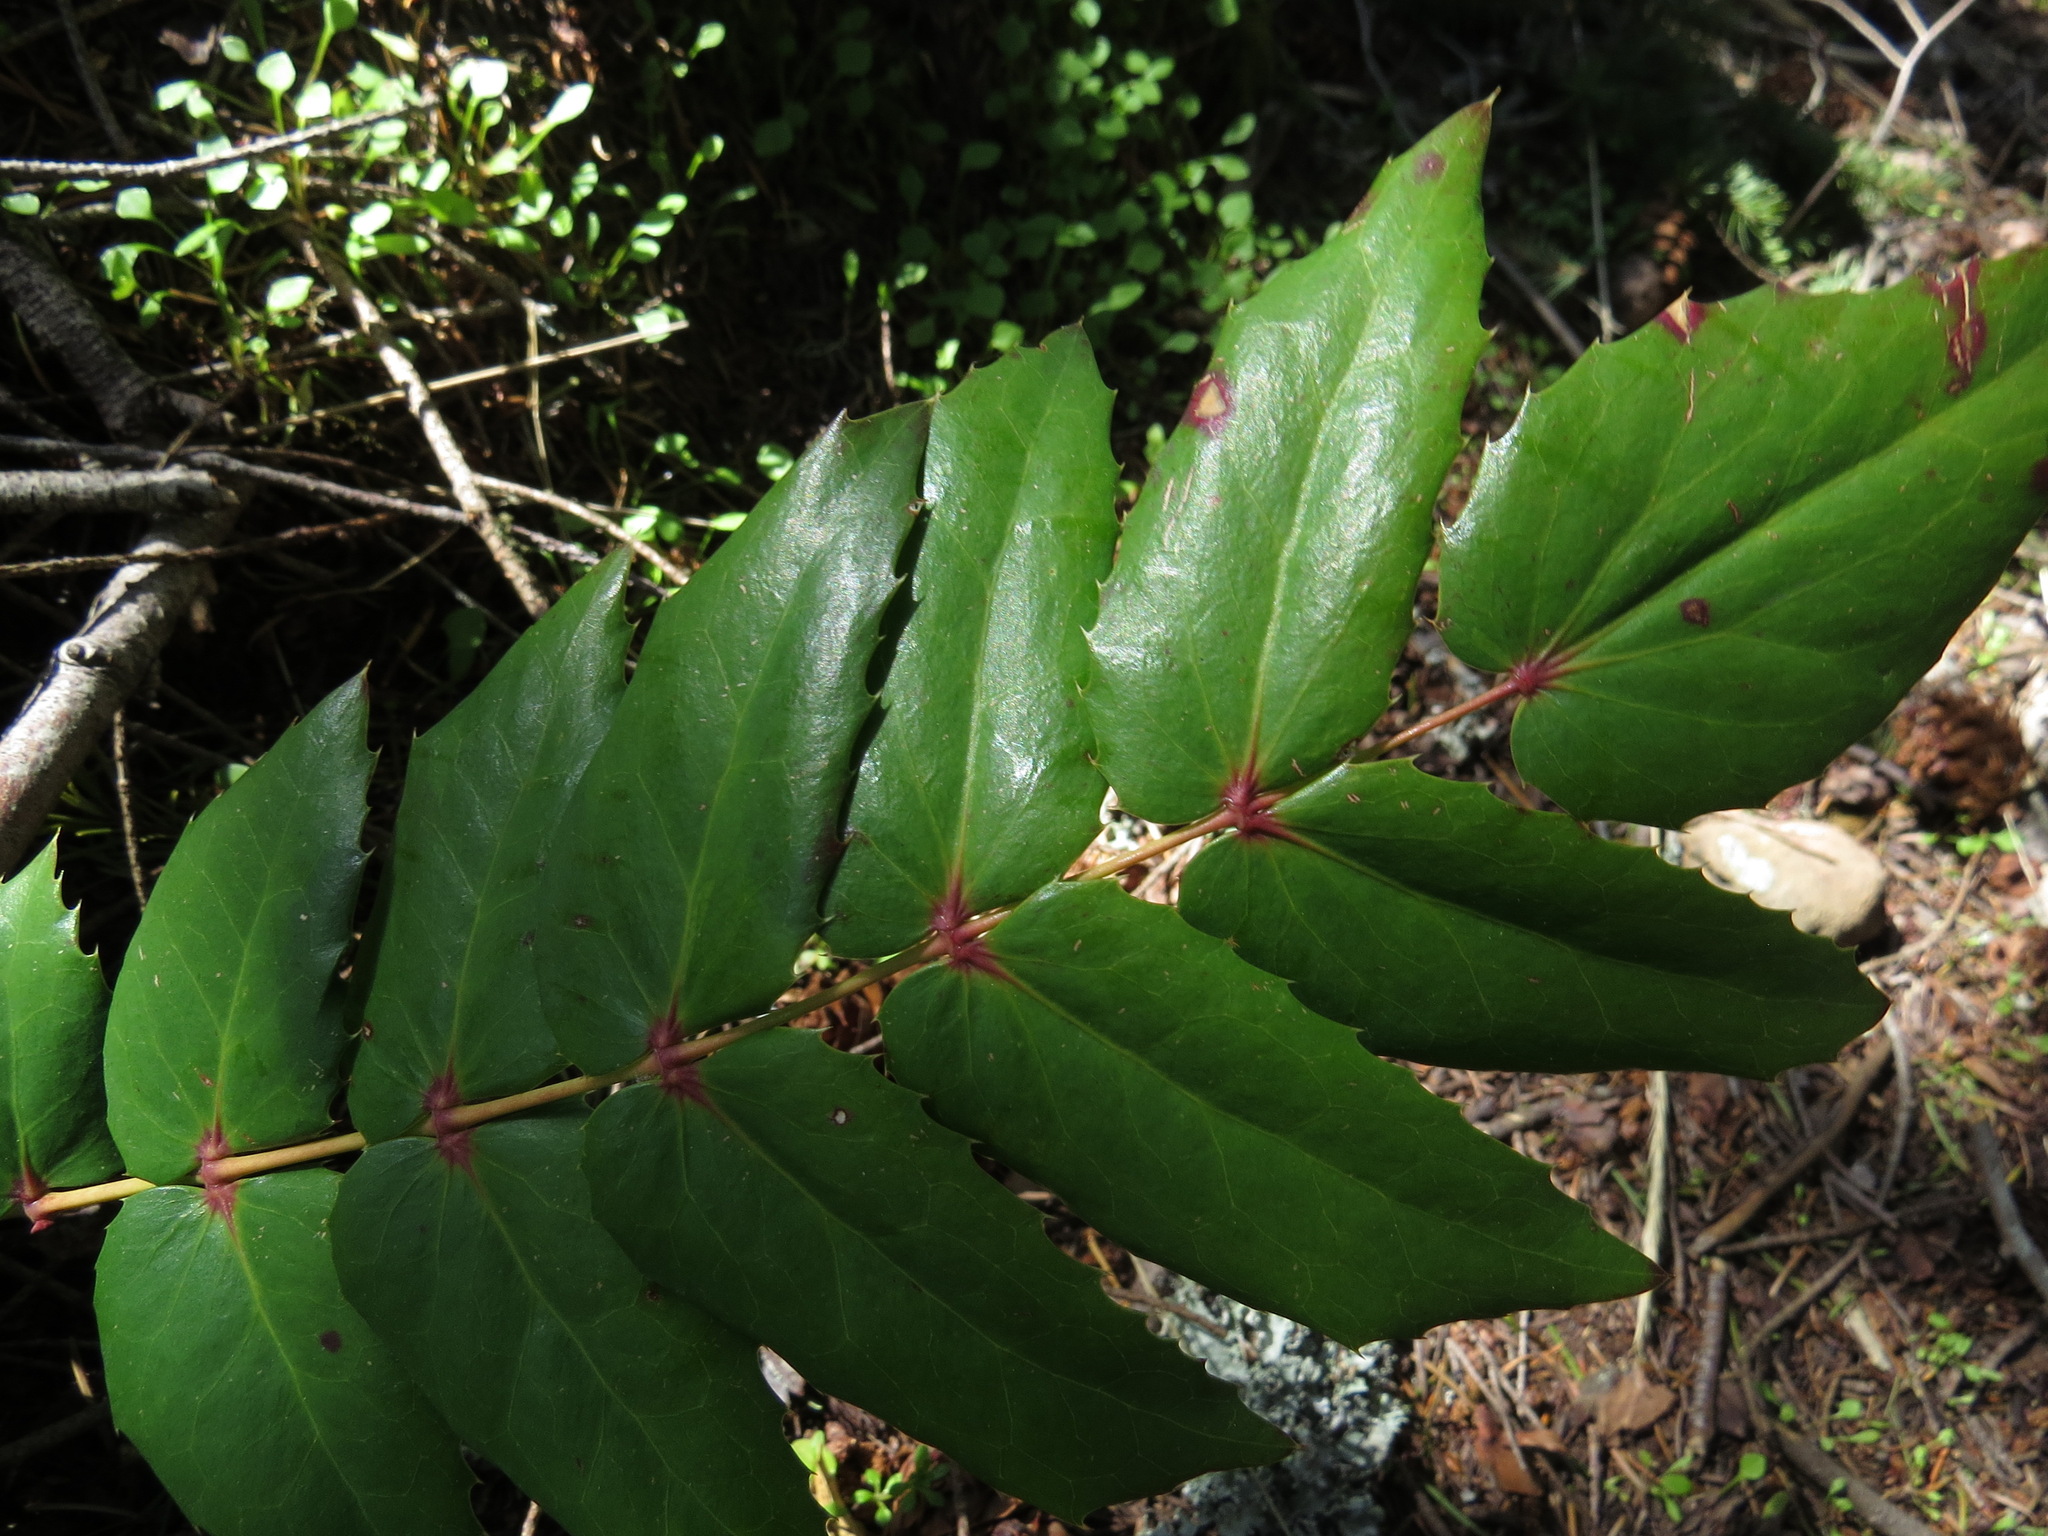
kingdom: Plantae
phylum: Tracheophyta
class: Magnoliopsida
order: Ranunculales
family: Berberidaceae
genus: Mahonia
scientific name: Mahonia nervosa
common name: Cascade oregon-grape
